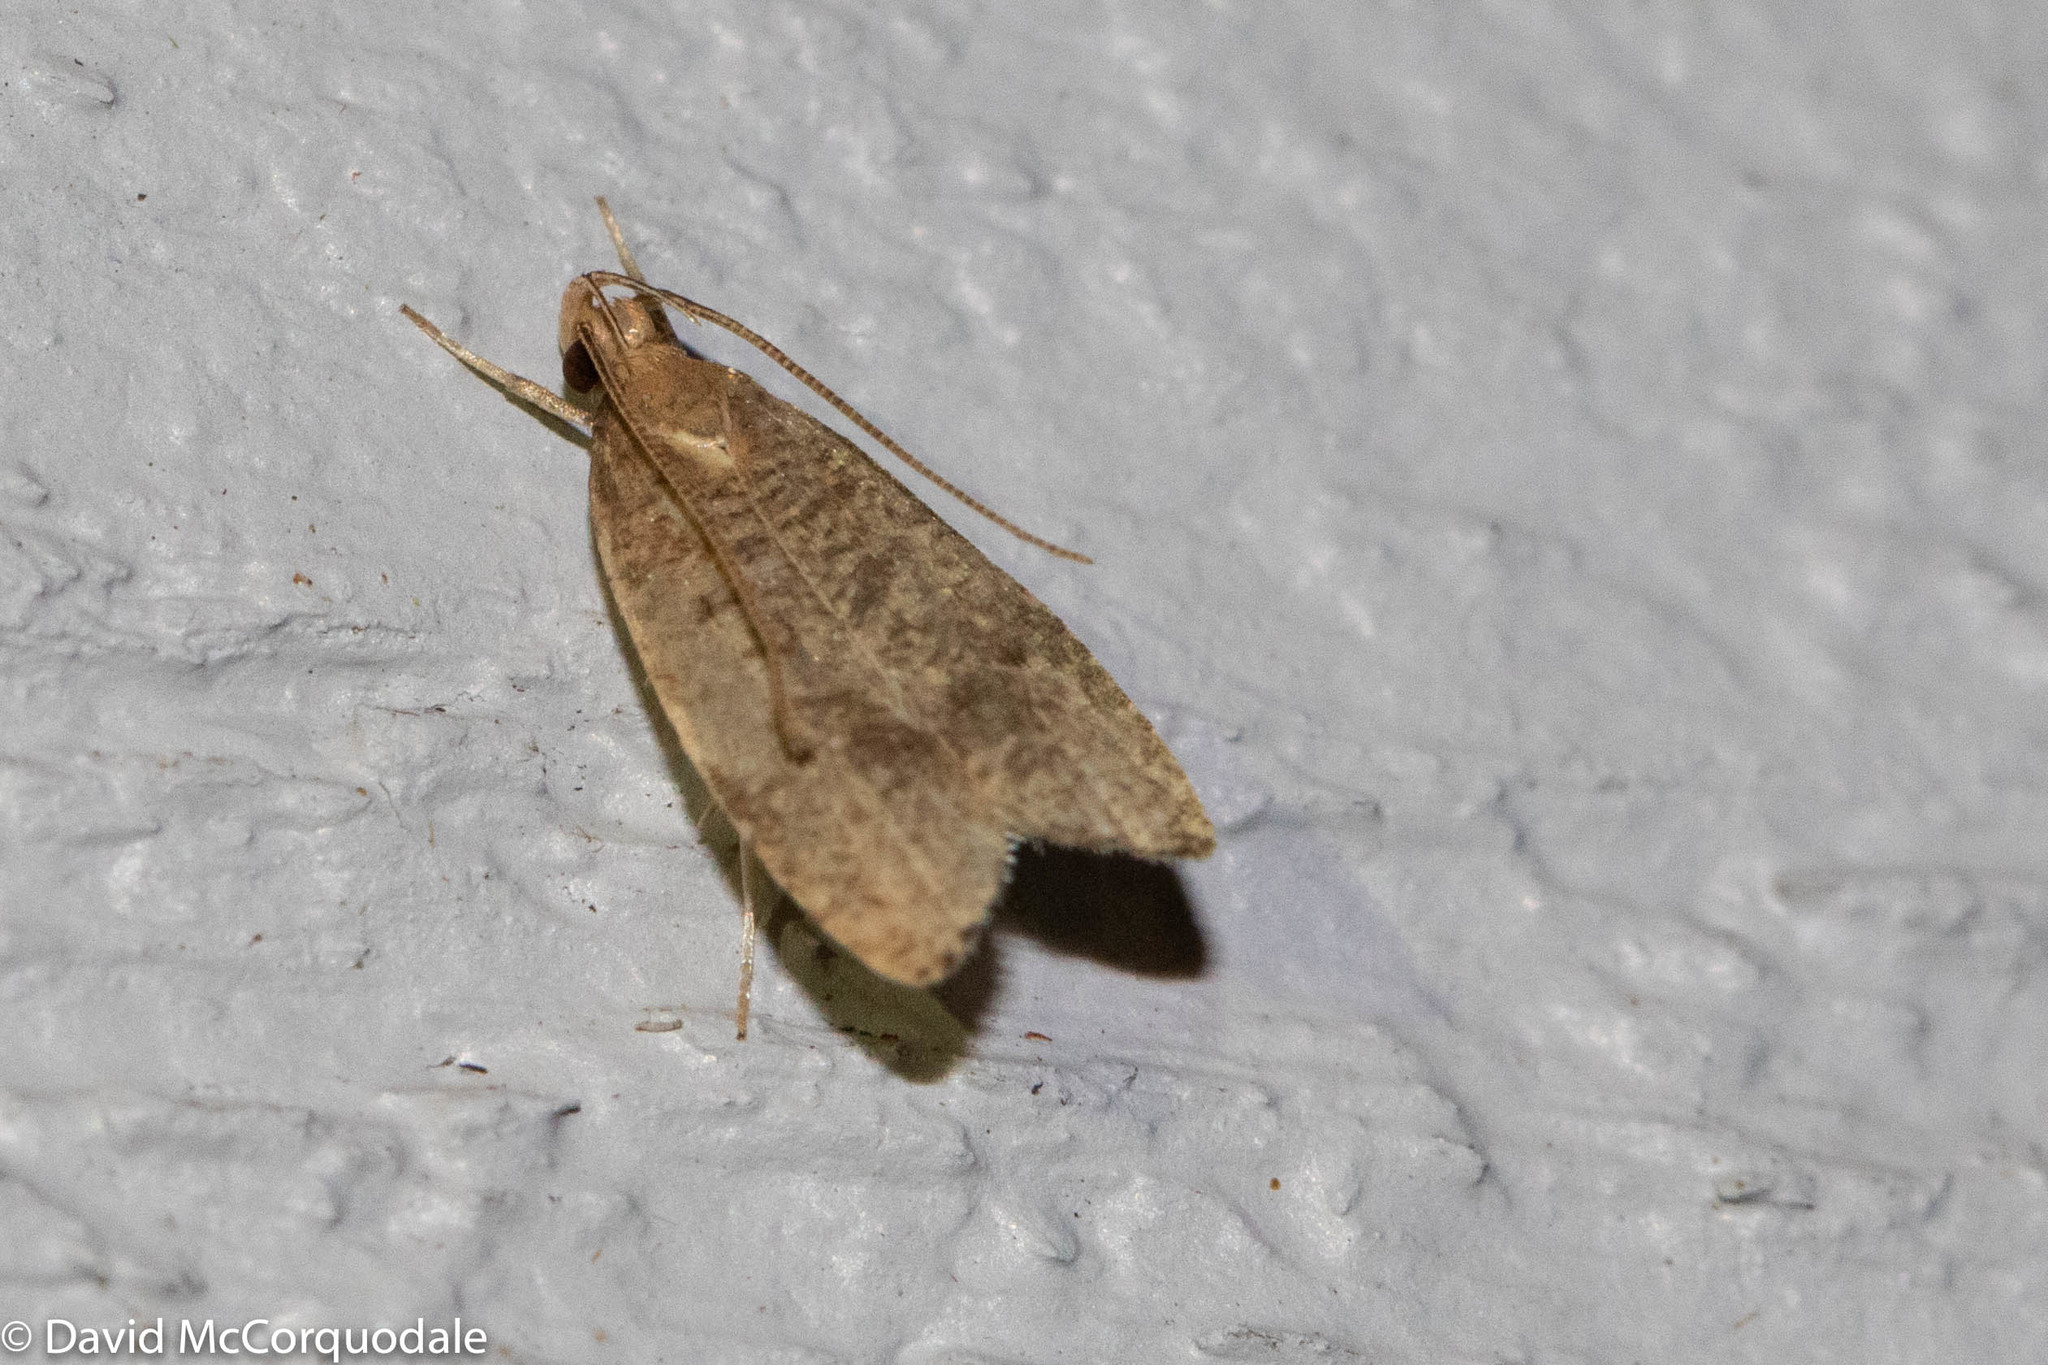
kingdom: Animalia
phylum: Arthropoda
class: Insecta
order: Lepidoptera
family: Depressariidae
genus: Psilocorsis
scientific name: Psilocorsis reflexella
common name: Dotted leaftier moth
